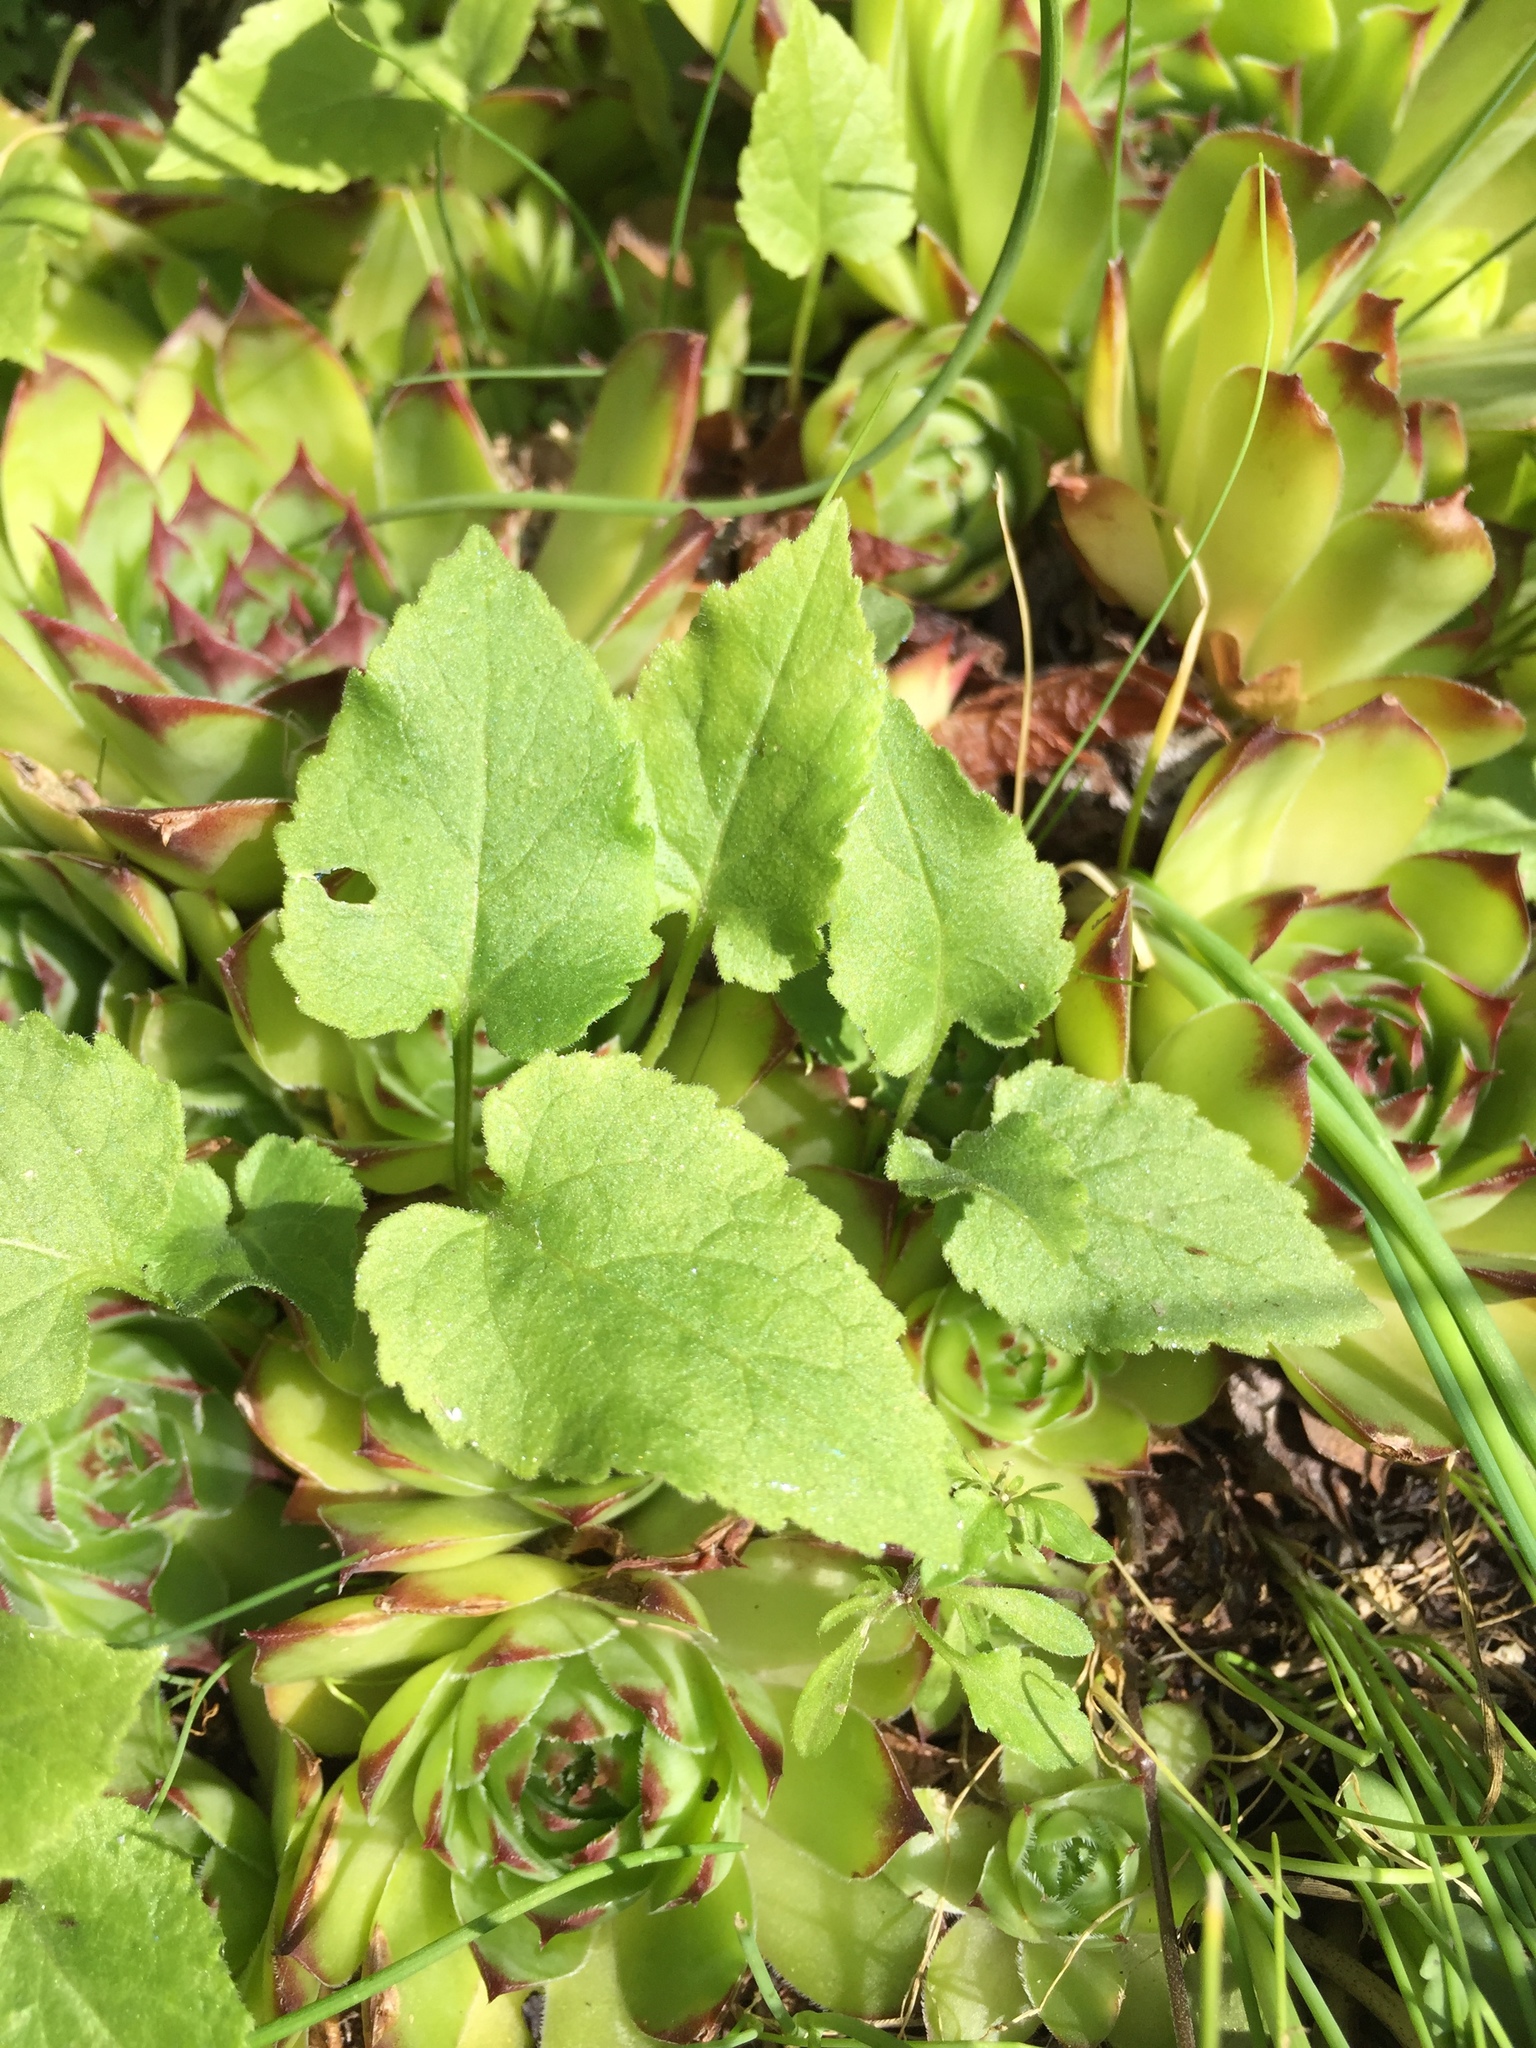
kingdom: Plantae
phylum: Tracheophyta
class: Magnoliopsida
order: Asterales
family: Campanulaceae
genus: Campanula
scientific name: Campanula rapunculoides
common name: Creeping bellflower
